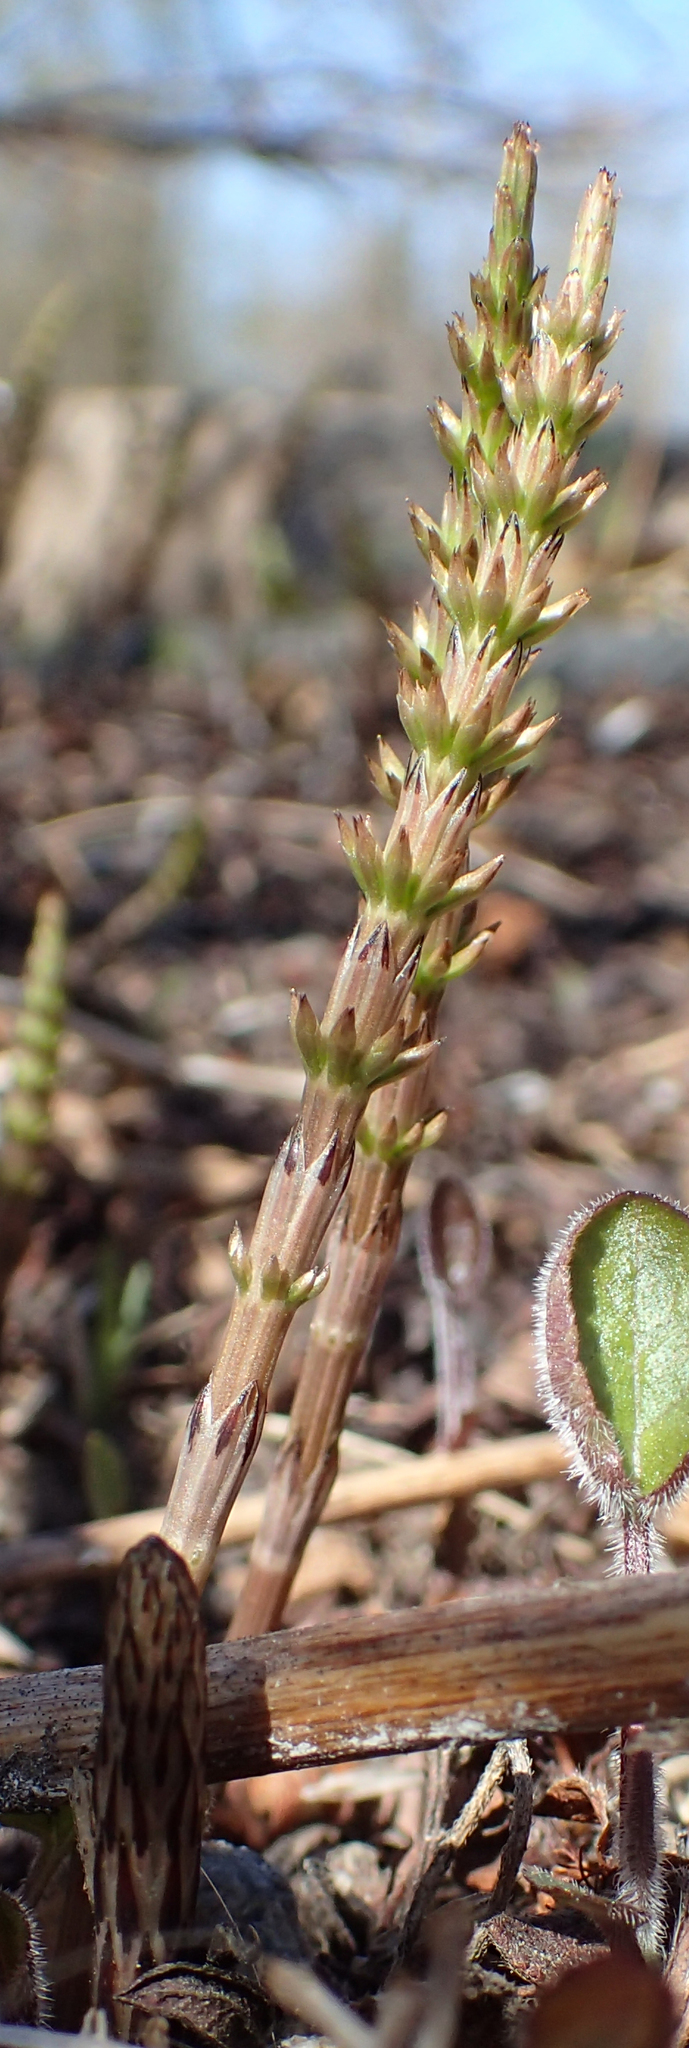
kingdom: Plantae
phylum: Tracheophyta
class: Polypodiopsida
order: Equisetales
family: Equisetaceae
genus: Equisetum
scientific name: Equisetum arvense
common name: Field horsetail
